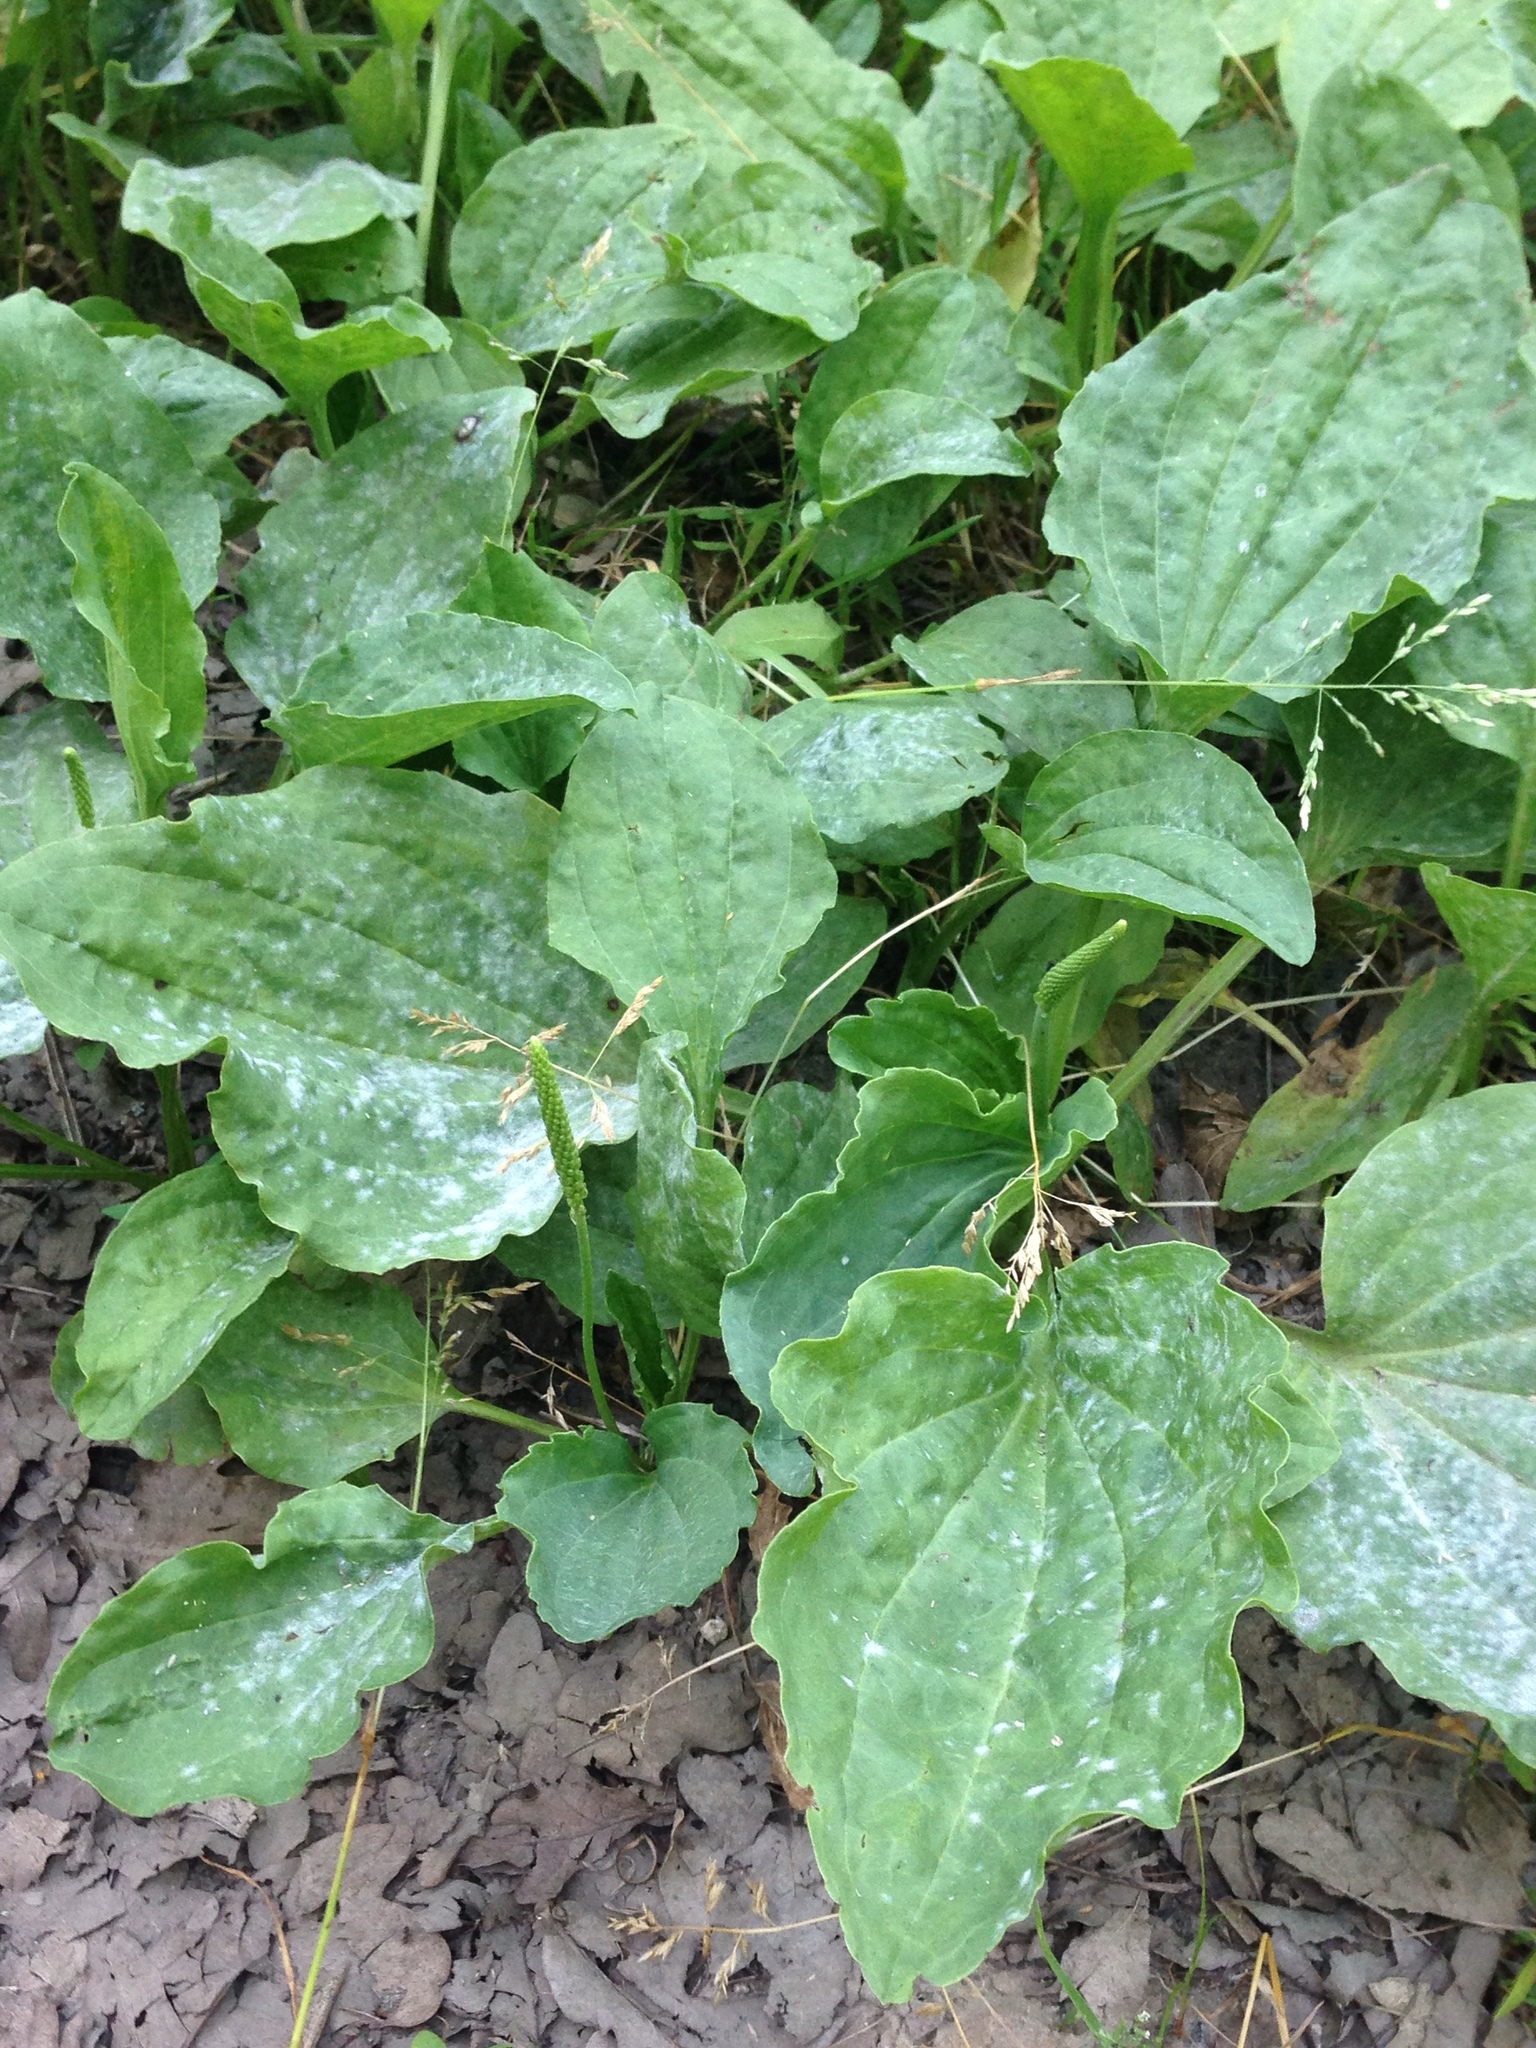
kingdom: Plantae
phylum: Tracheophyta
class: Magnoliopsida
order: Lamiales
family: Plantaginaceae
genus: Plantago
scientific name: Plantago major
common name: Common plantain
